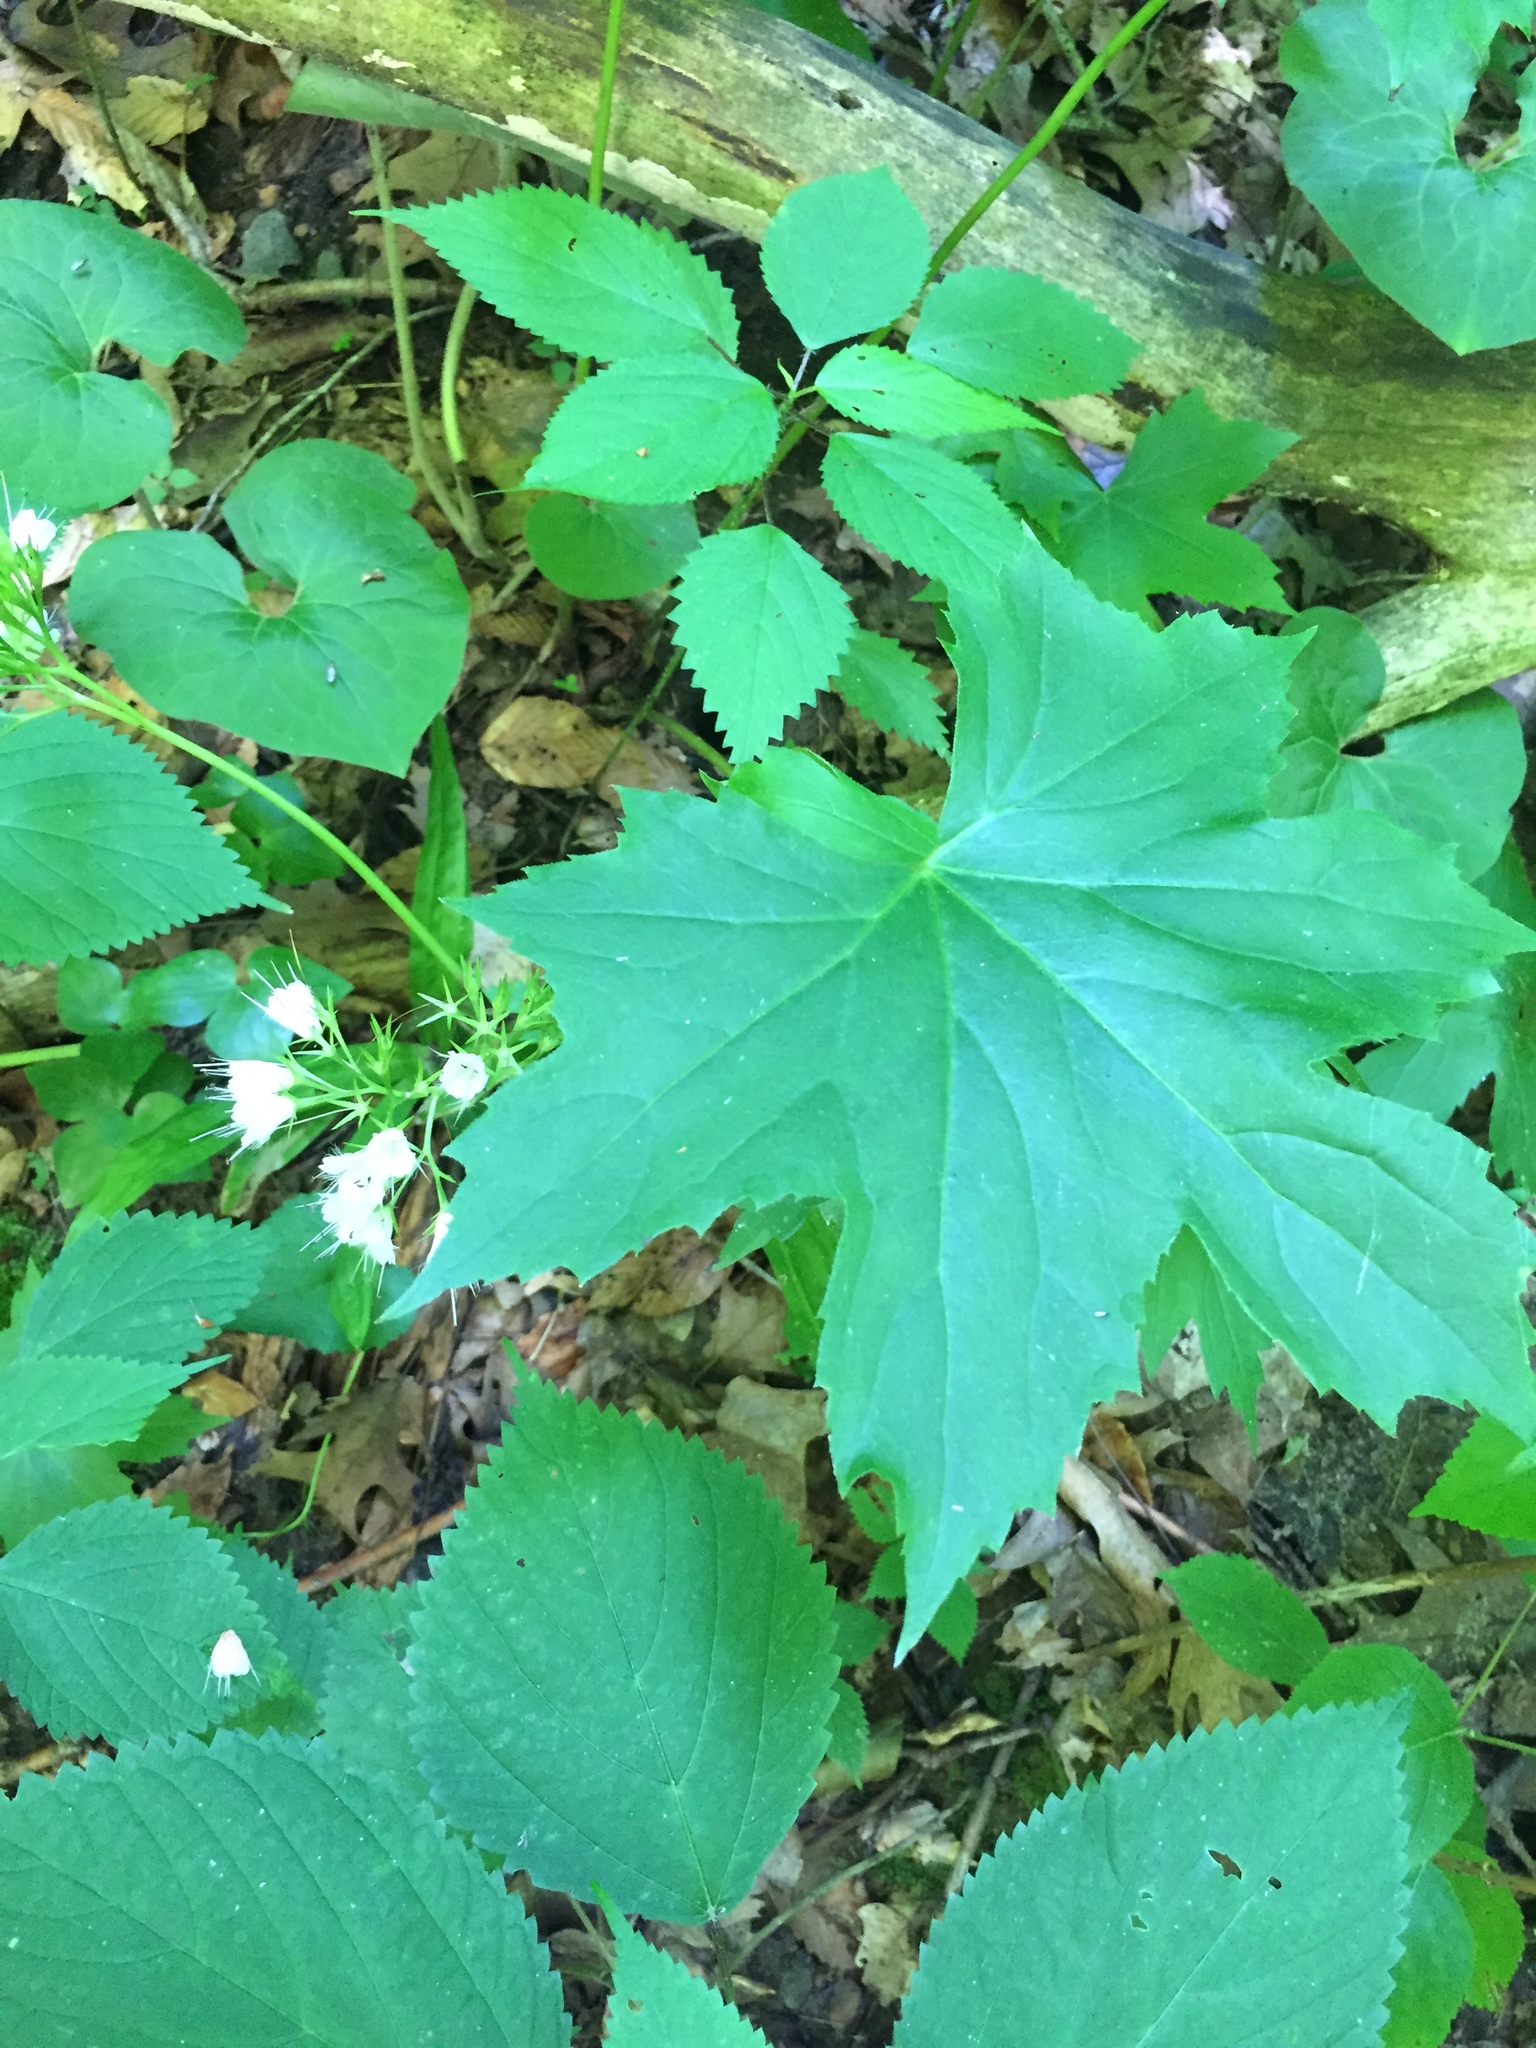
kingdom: Plantae
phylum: Tracheophyta
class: Magnoliopsida
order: Boraginales
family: Hydrophyllaceae
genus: Hydrophyllum
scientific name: Hydrophyllum canadense
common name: Canada waterleaf
